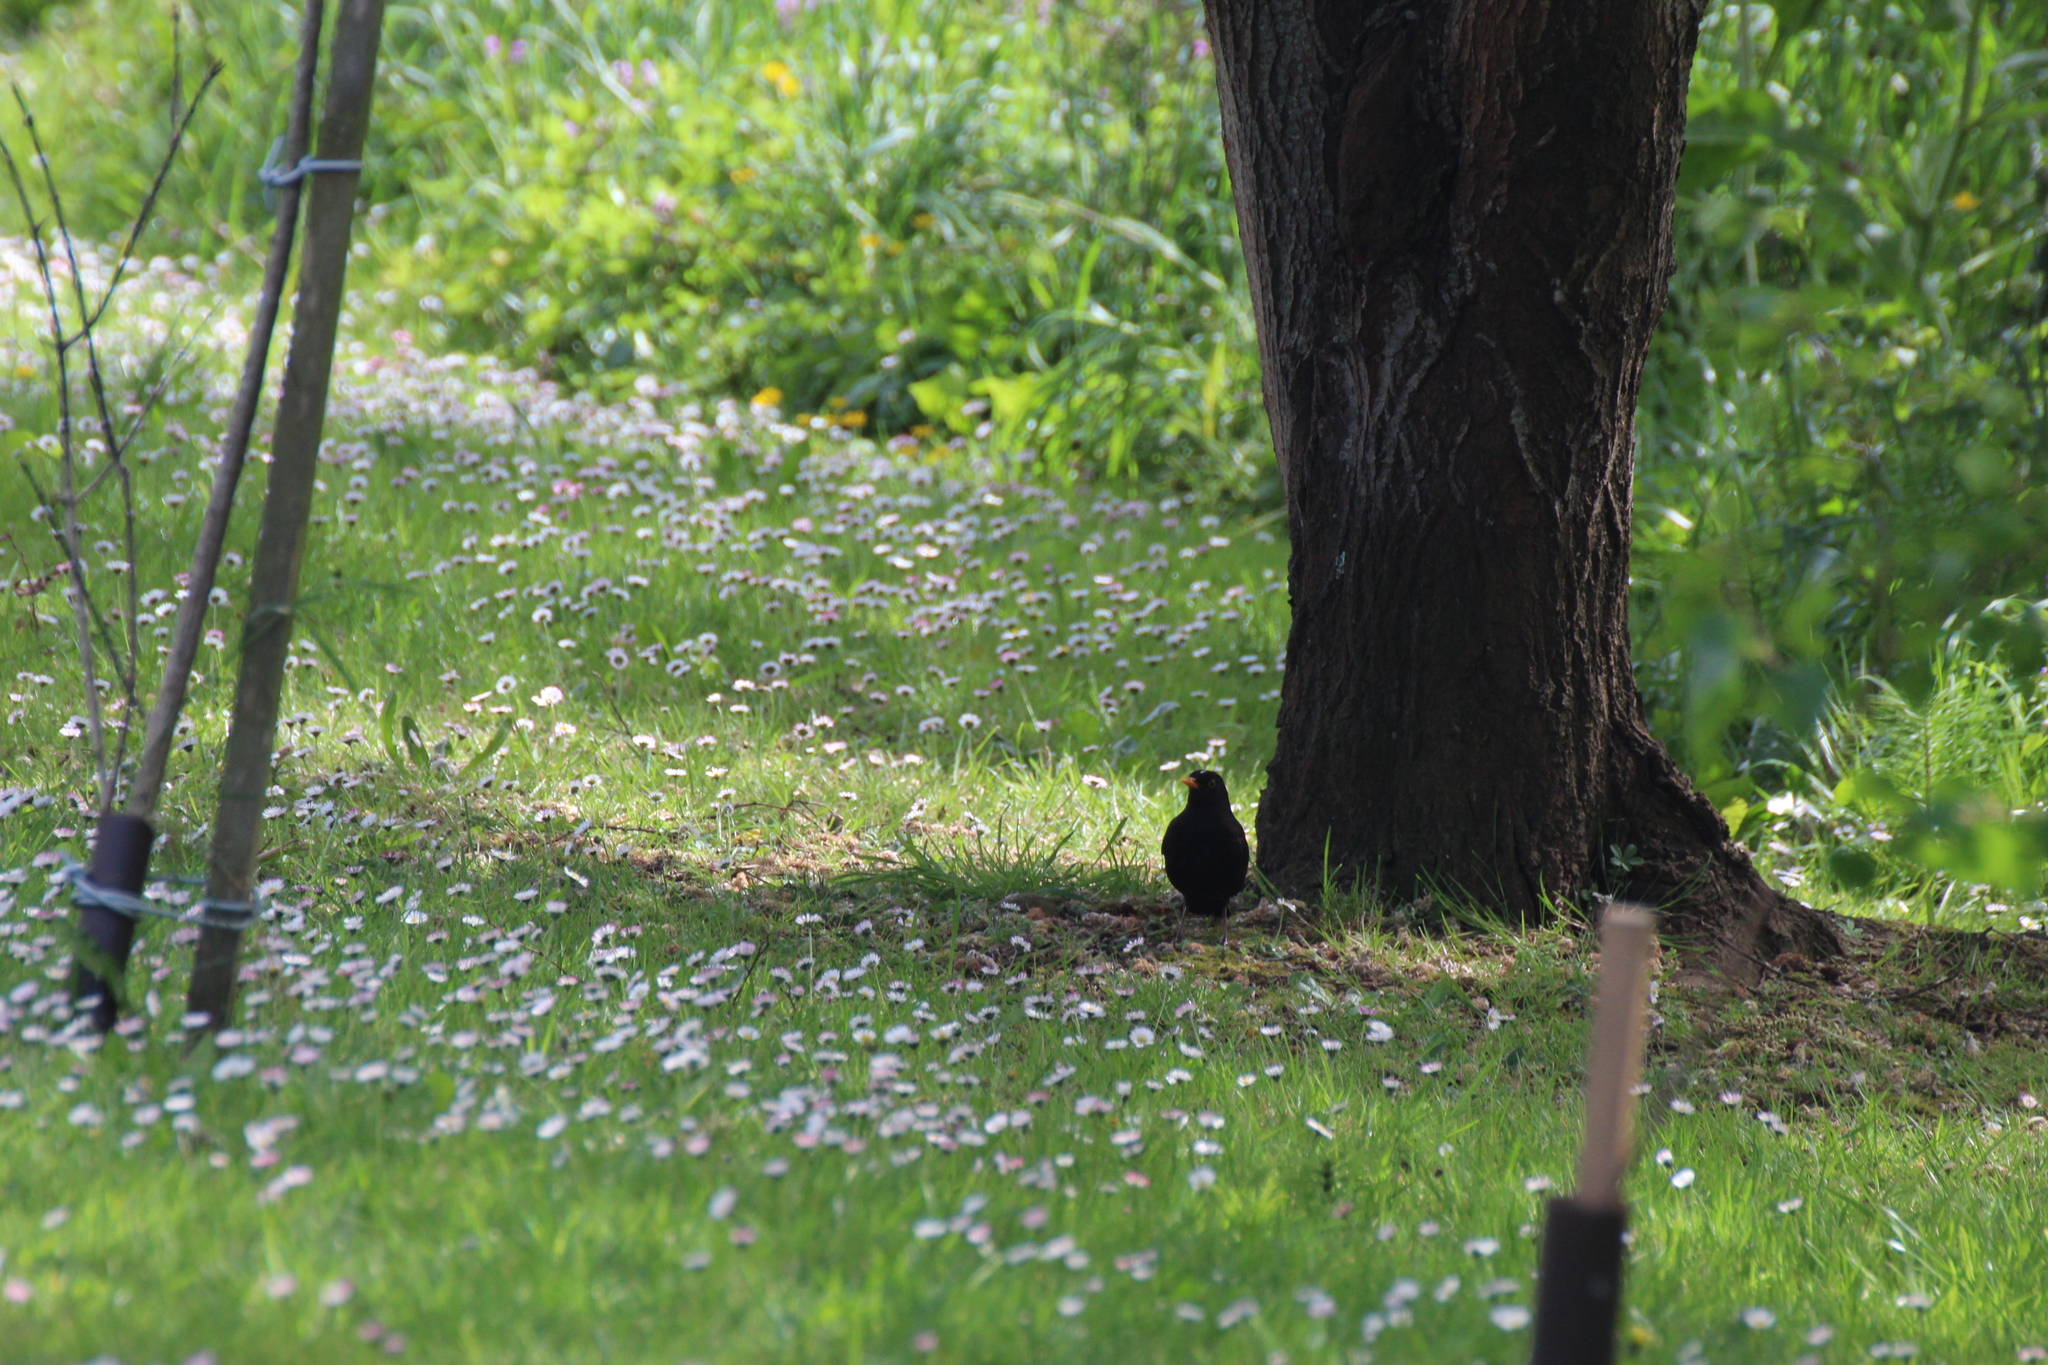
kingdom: Animalia
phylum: Chordata
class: Aves
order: Passeriformes
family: Turdidae
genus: Turdus
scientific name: Turdus merula
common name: Common blackbird
